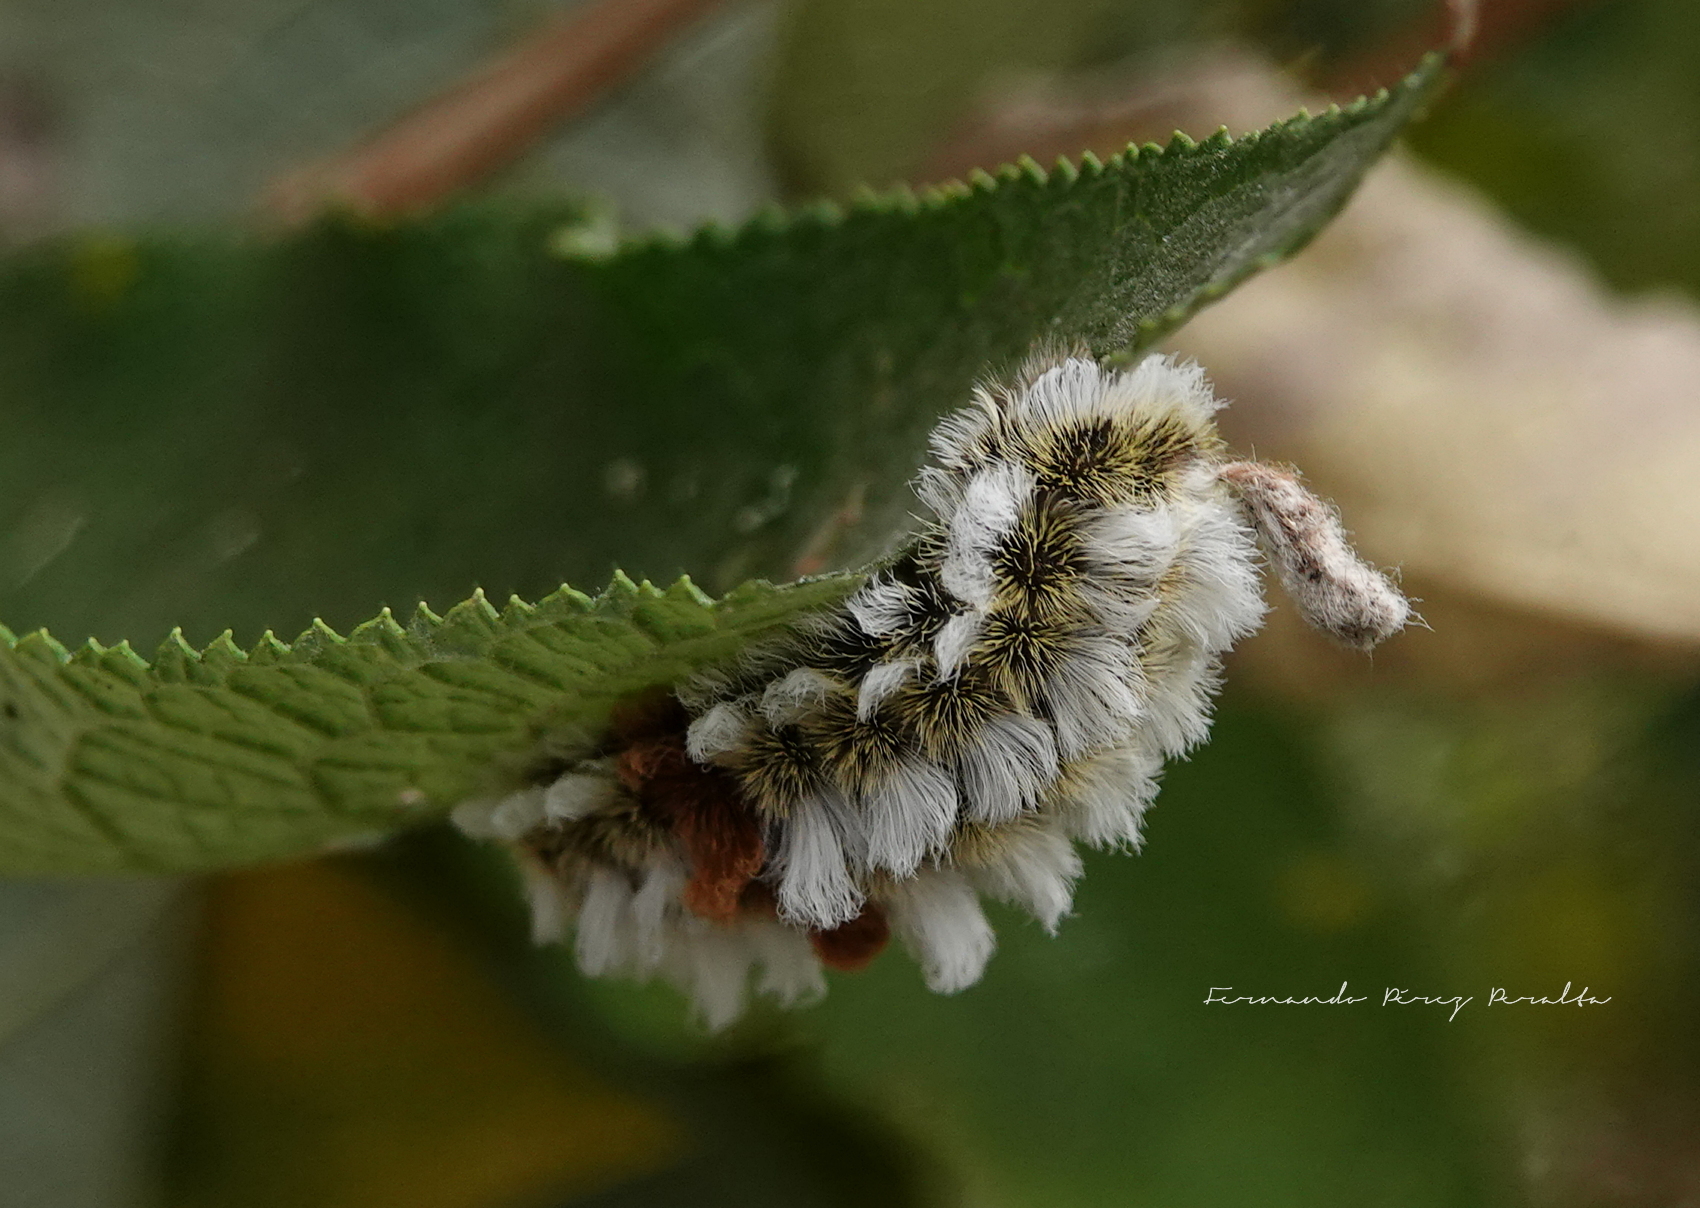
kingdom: Animalia
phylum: Arthropoda
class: Insecta
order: Lepidoptera
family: Megalopygidae
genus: Megalopyge
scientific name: Megalopyge defoliata
